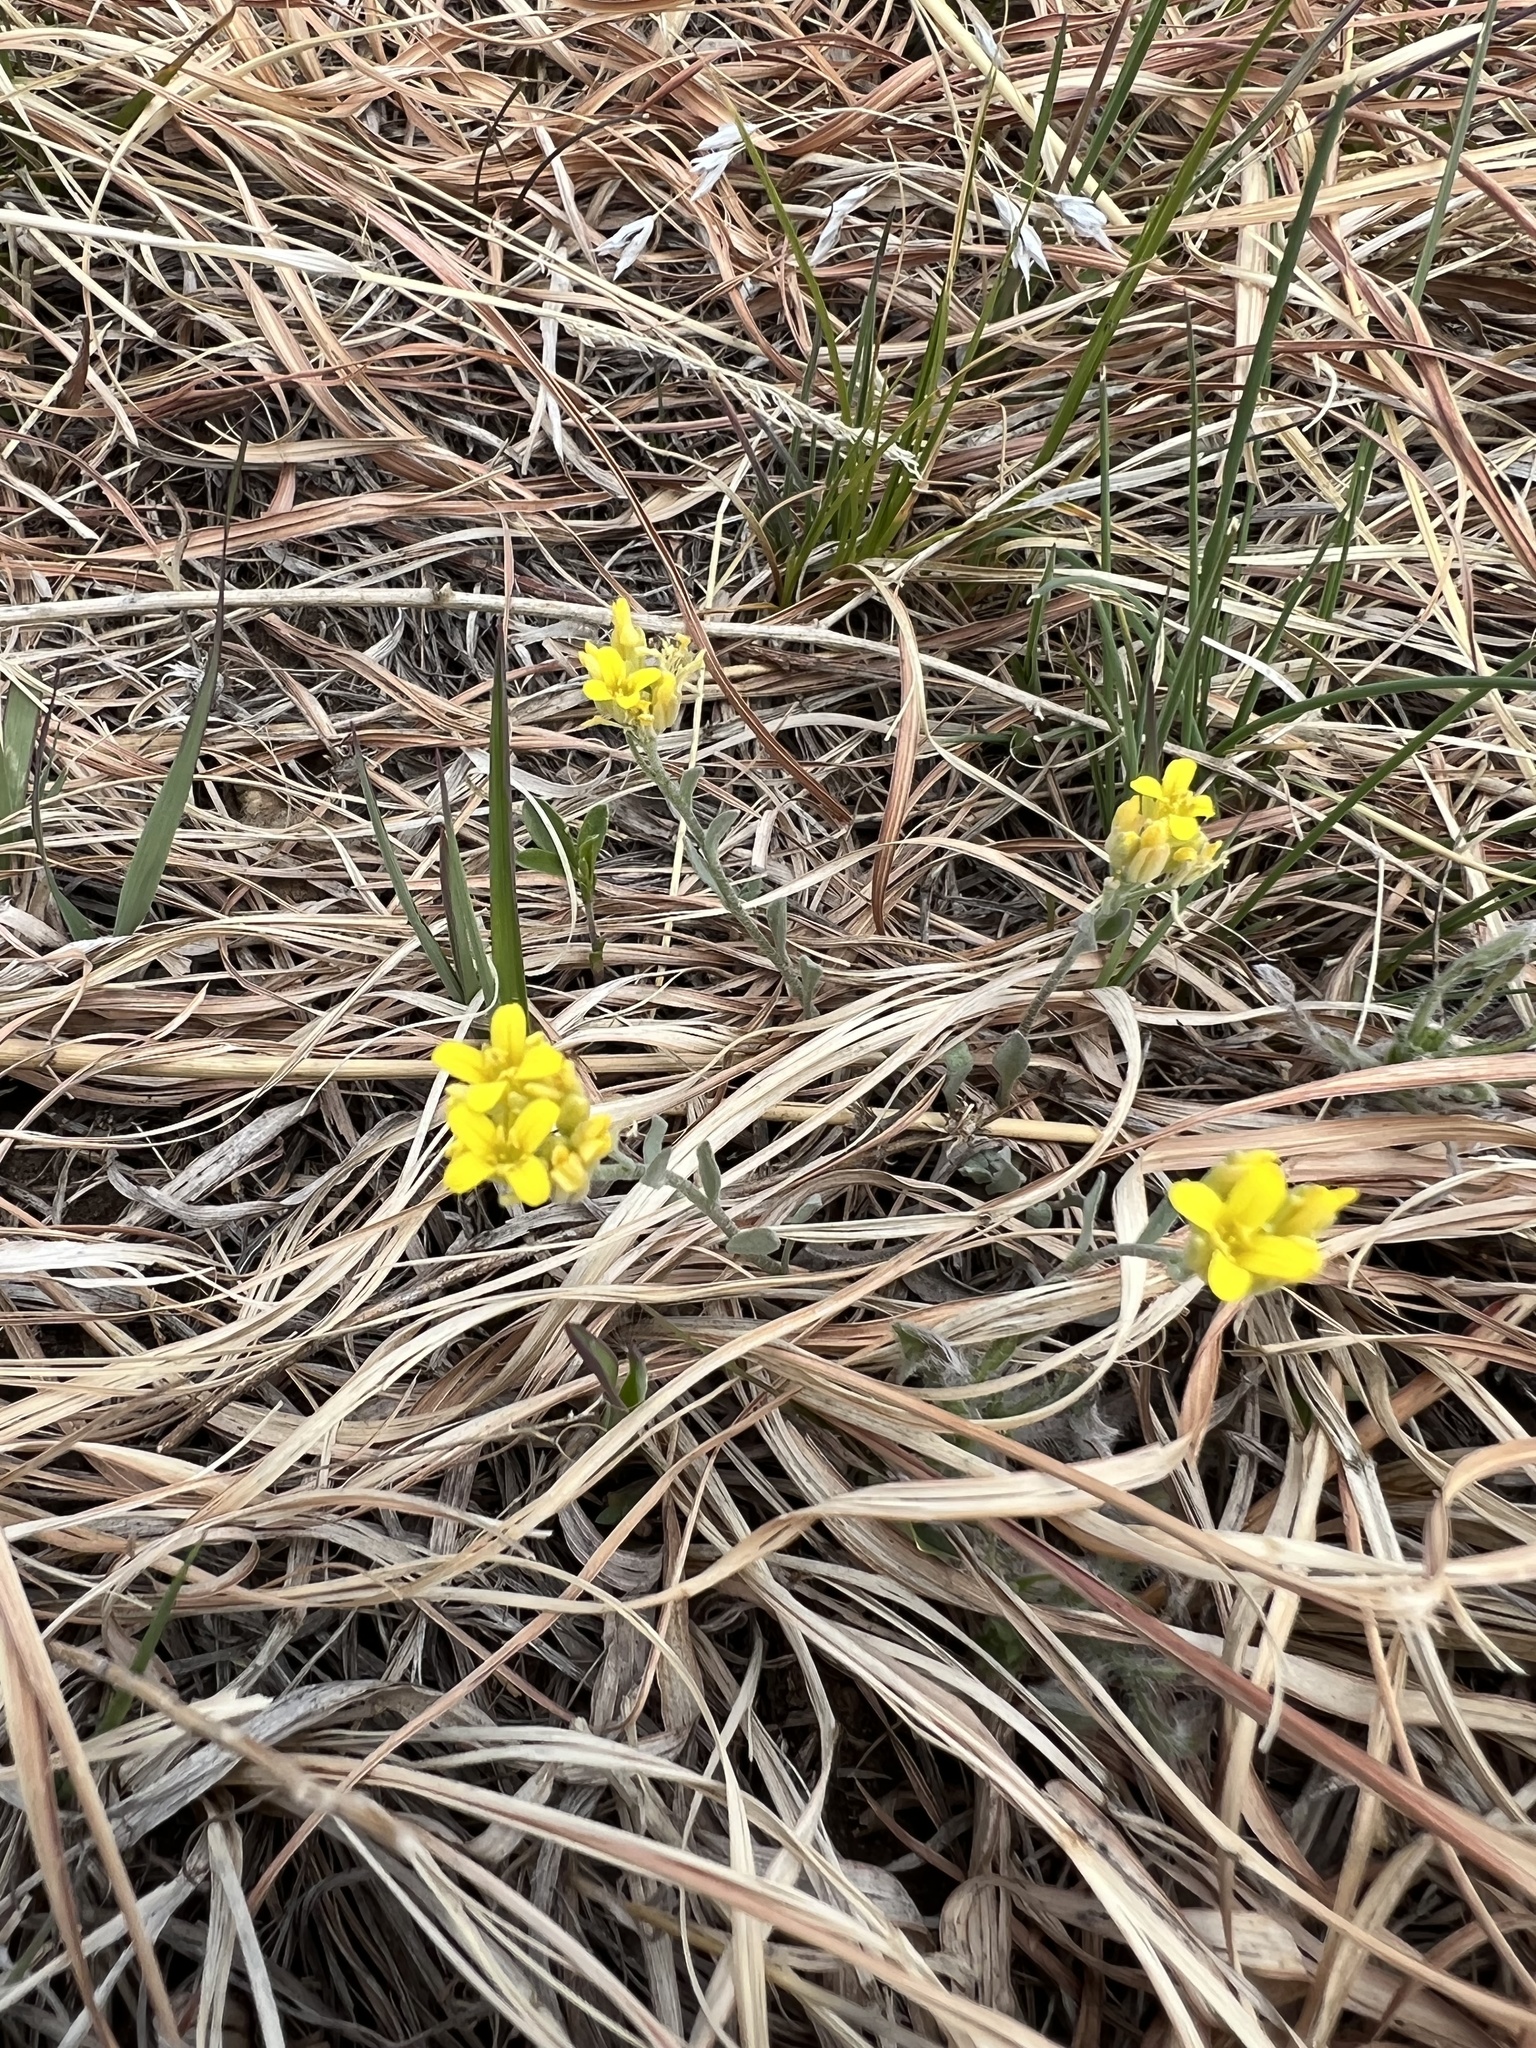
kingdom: Plantae
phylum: Tracheophyta
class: Magnoliopsida
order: Brassicales
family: Brassicaceae
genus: Physaria
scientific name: Physaria montana
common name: Mountain bladderpod
